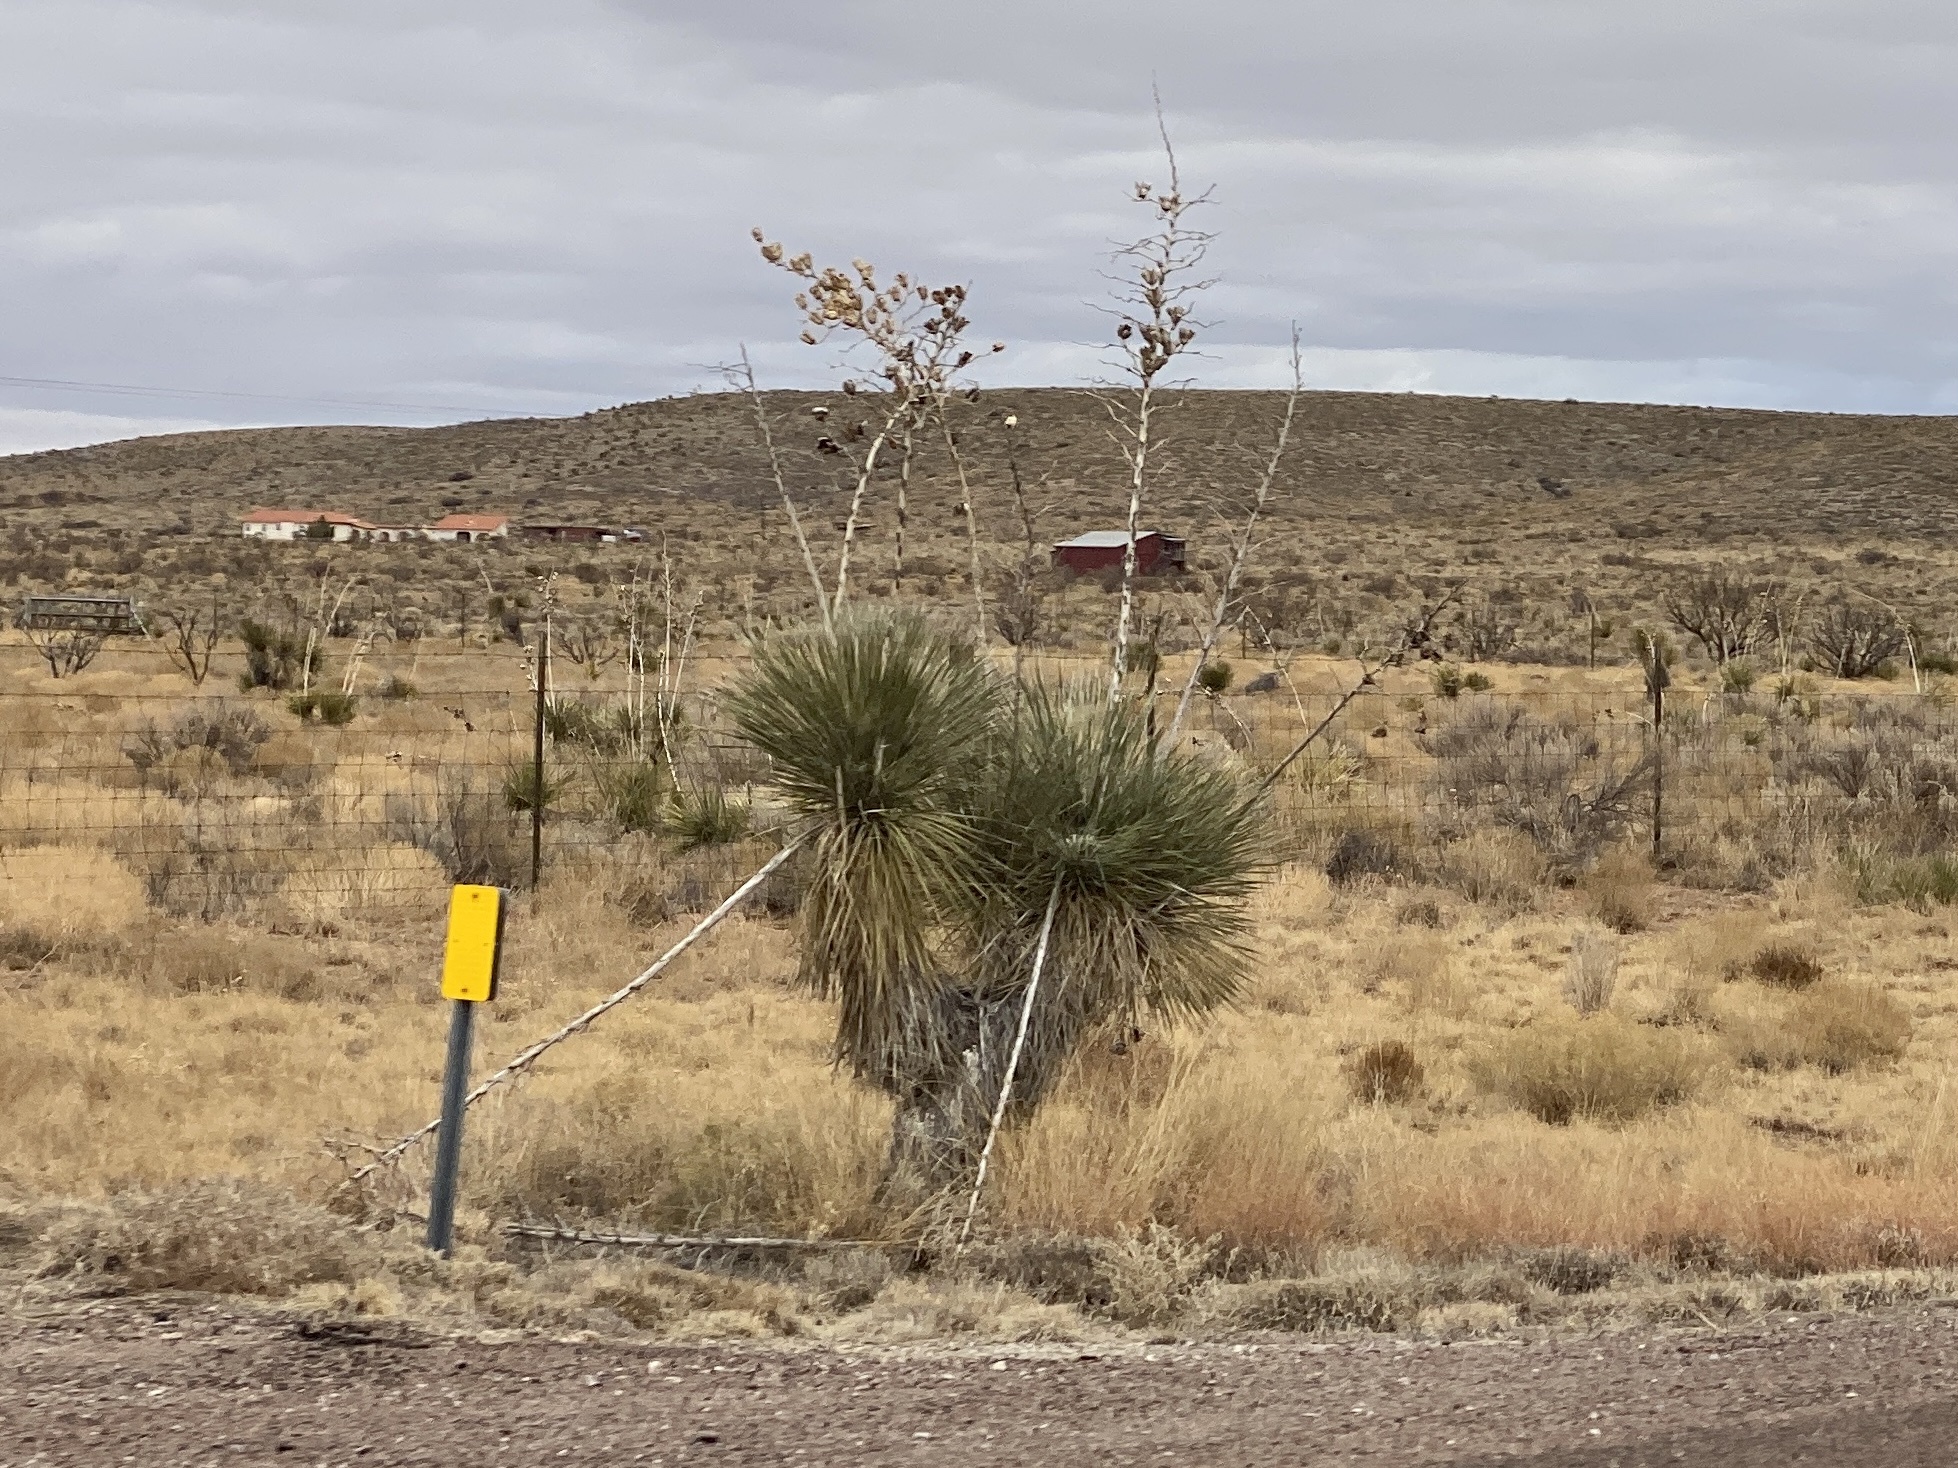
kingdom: Plantae
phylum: Tracheophyta
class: Liliopsida
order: Asparagales
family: Asparagaceae
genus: Yucca
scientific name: Yucca elata
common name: Palmella
